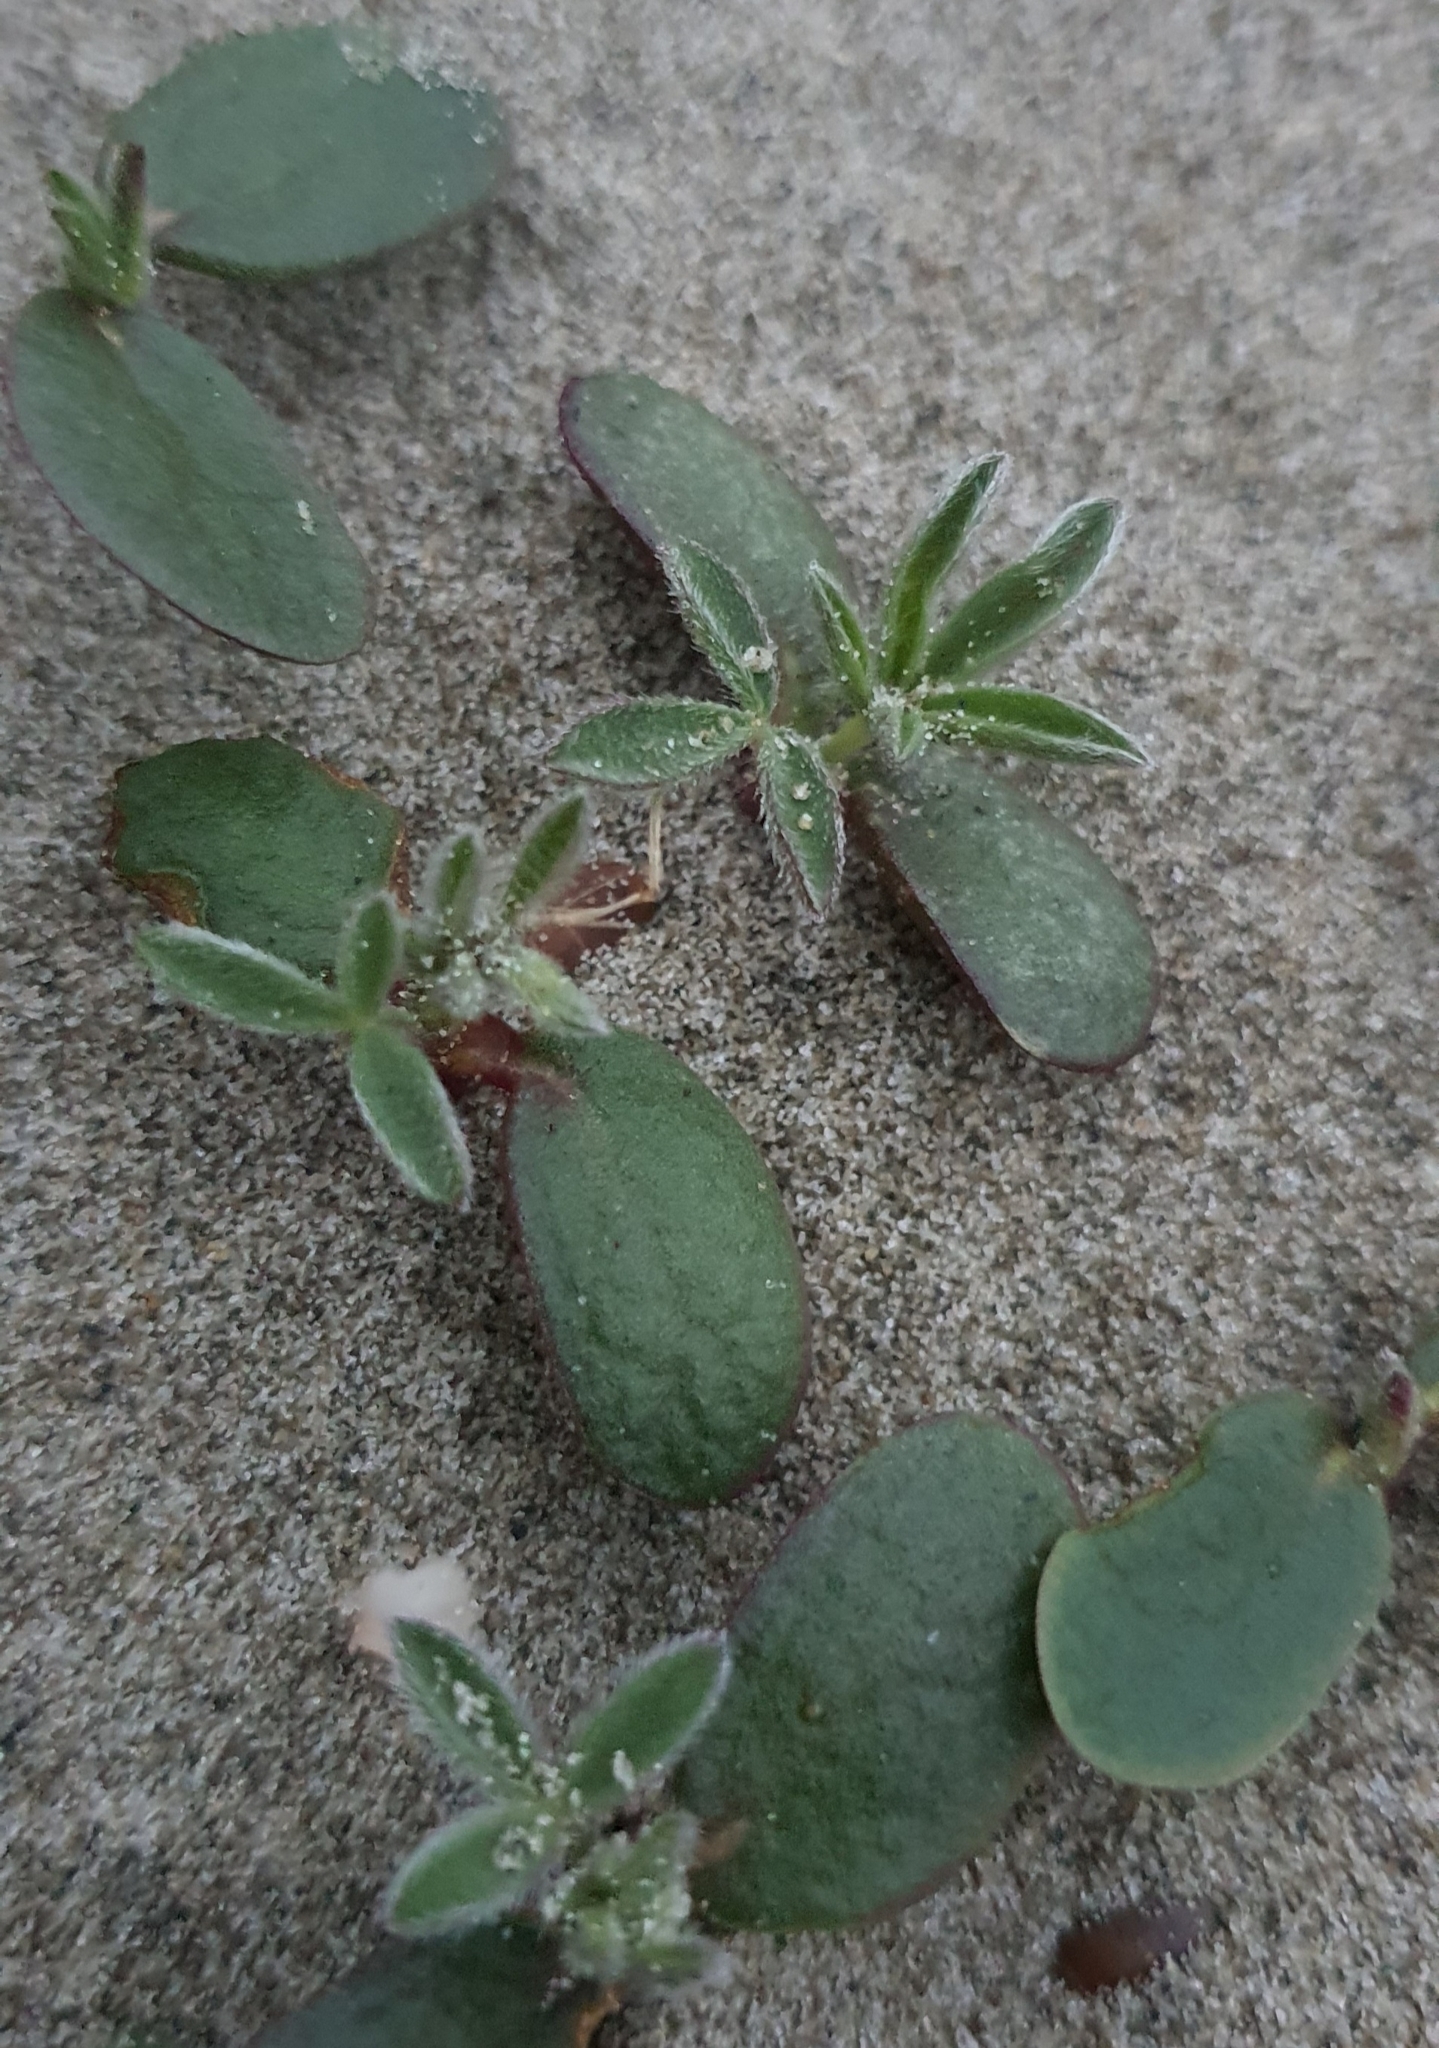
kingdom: Plantae
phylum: Tracheophyta
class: Magnoliopsida
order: Fabales
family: Fabaceae
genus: Lupinus
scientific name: Lupinus arboreus
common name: Yellow bush lupine
